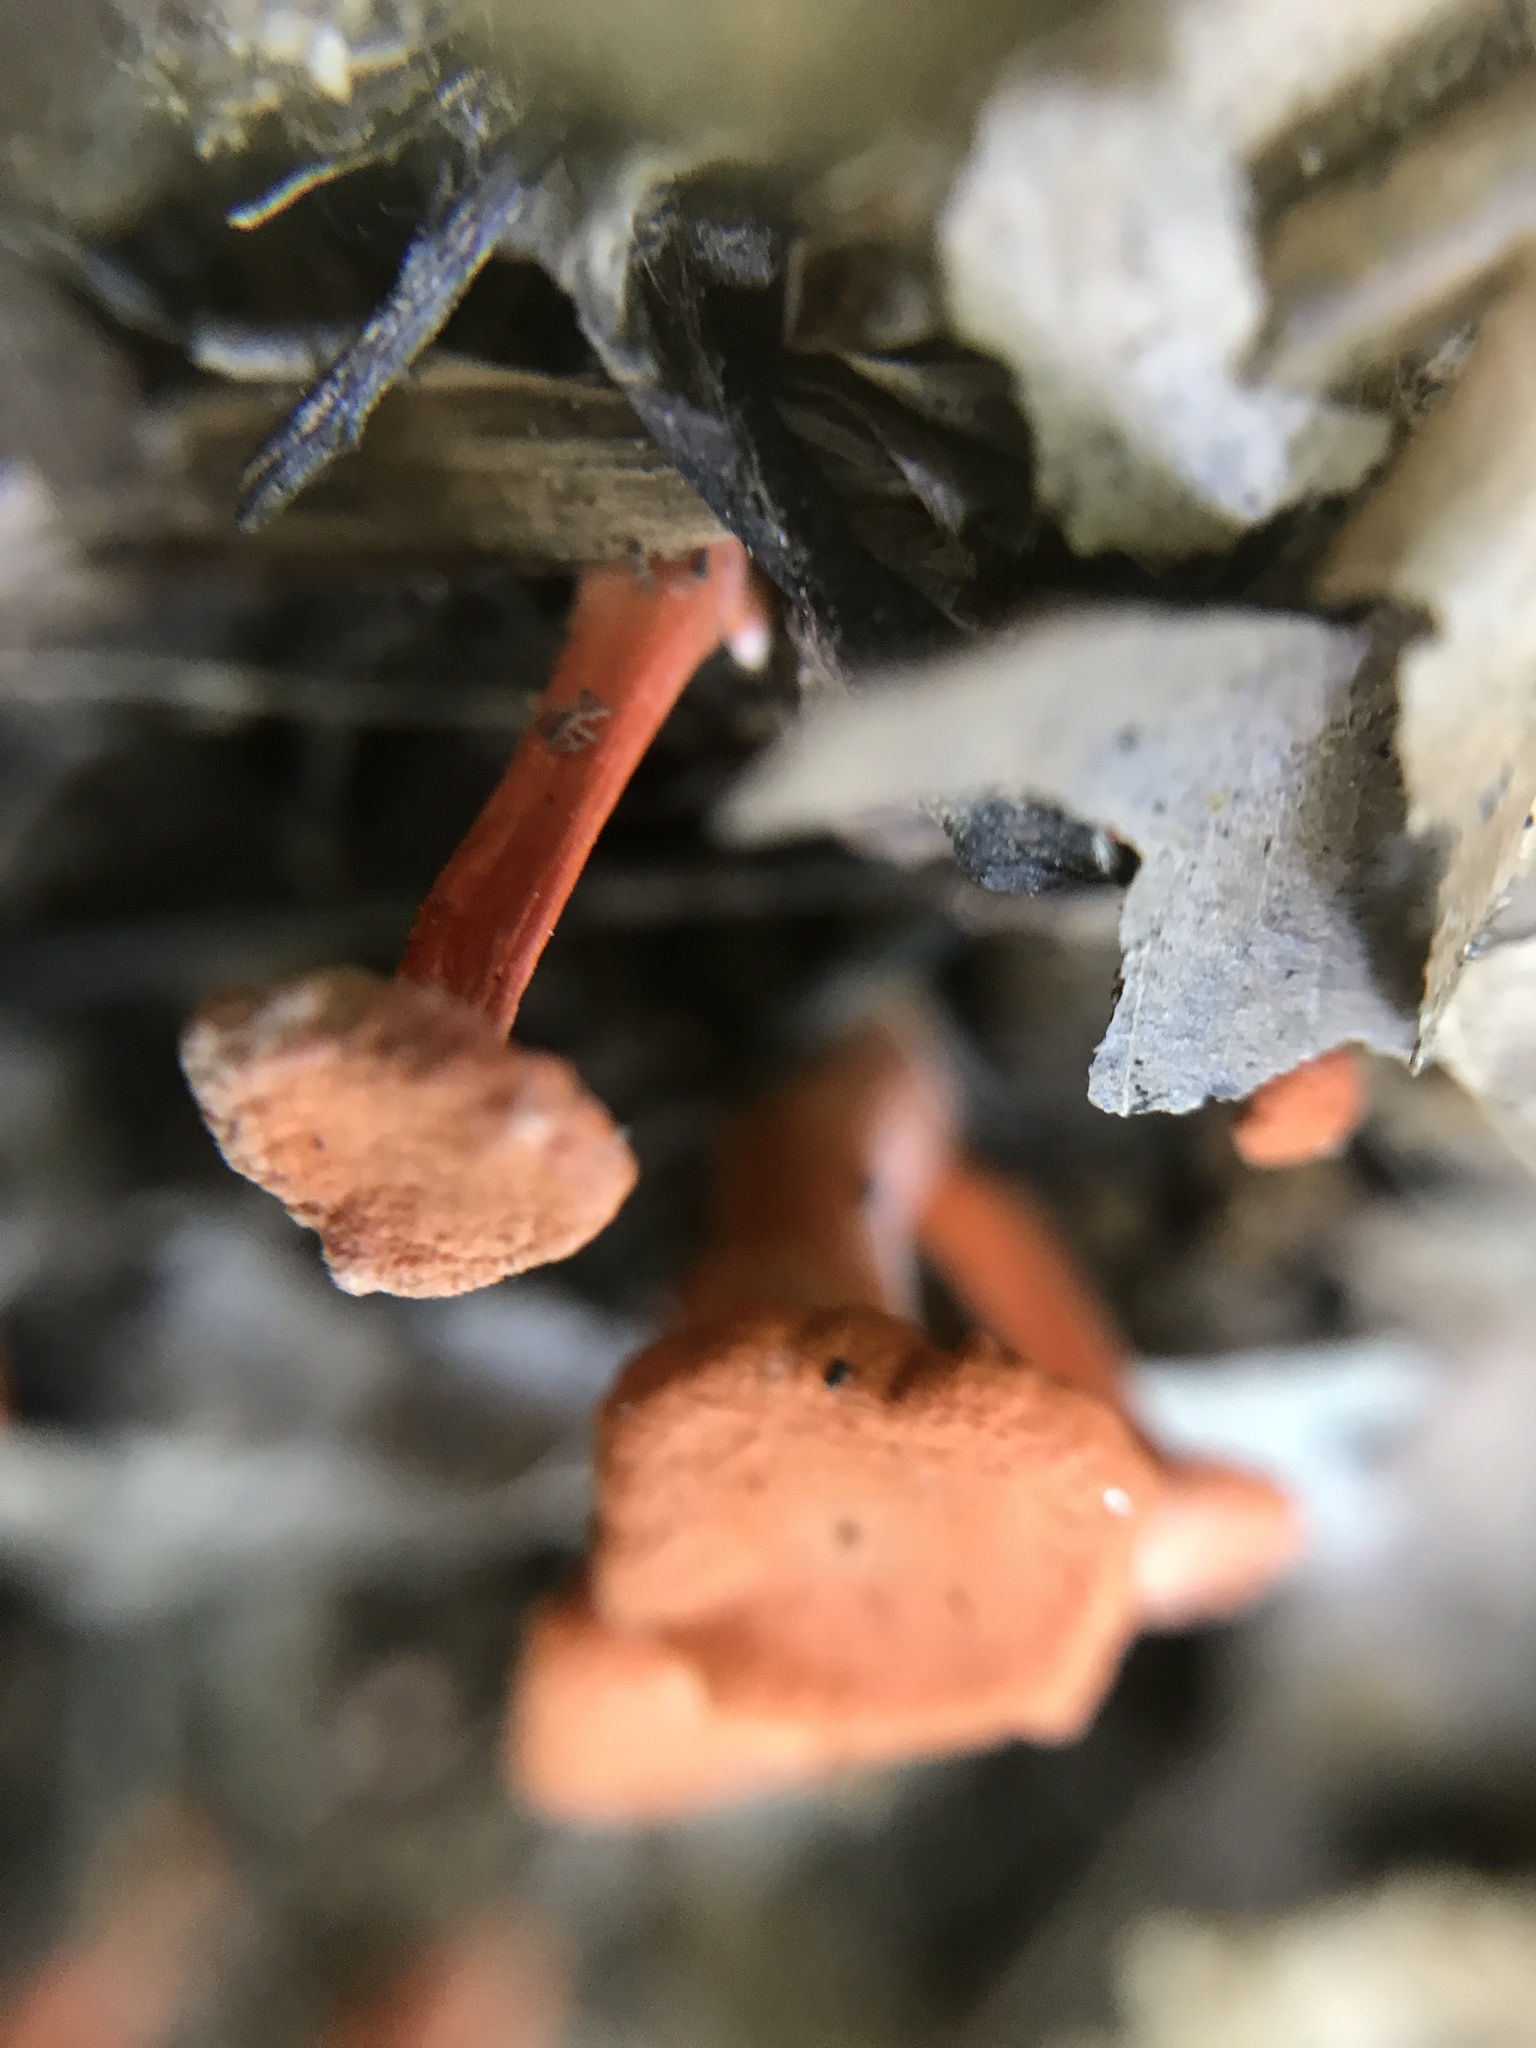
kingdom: Fungi
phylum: Basidiomycota
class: Agaricomycetes
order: Cantharellales
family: Hydnaceae
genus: Cantharellus
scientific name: Cantharellus cinnabarinus
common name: Cinnabar chanterelle
